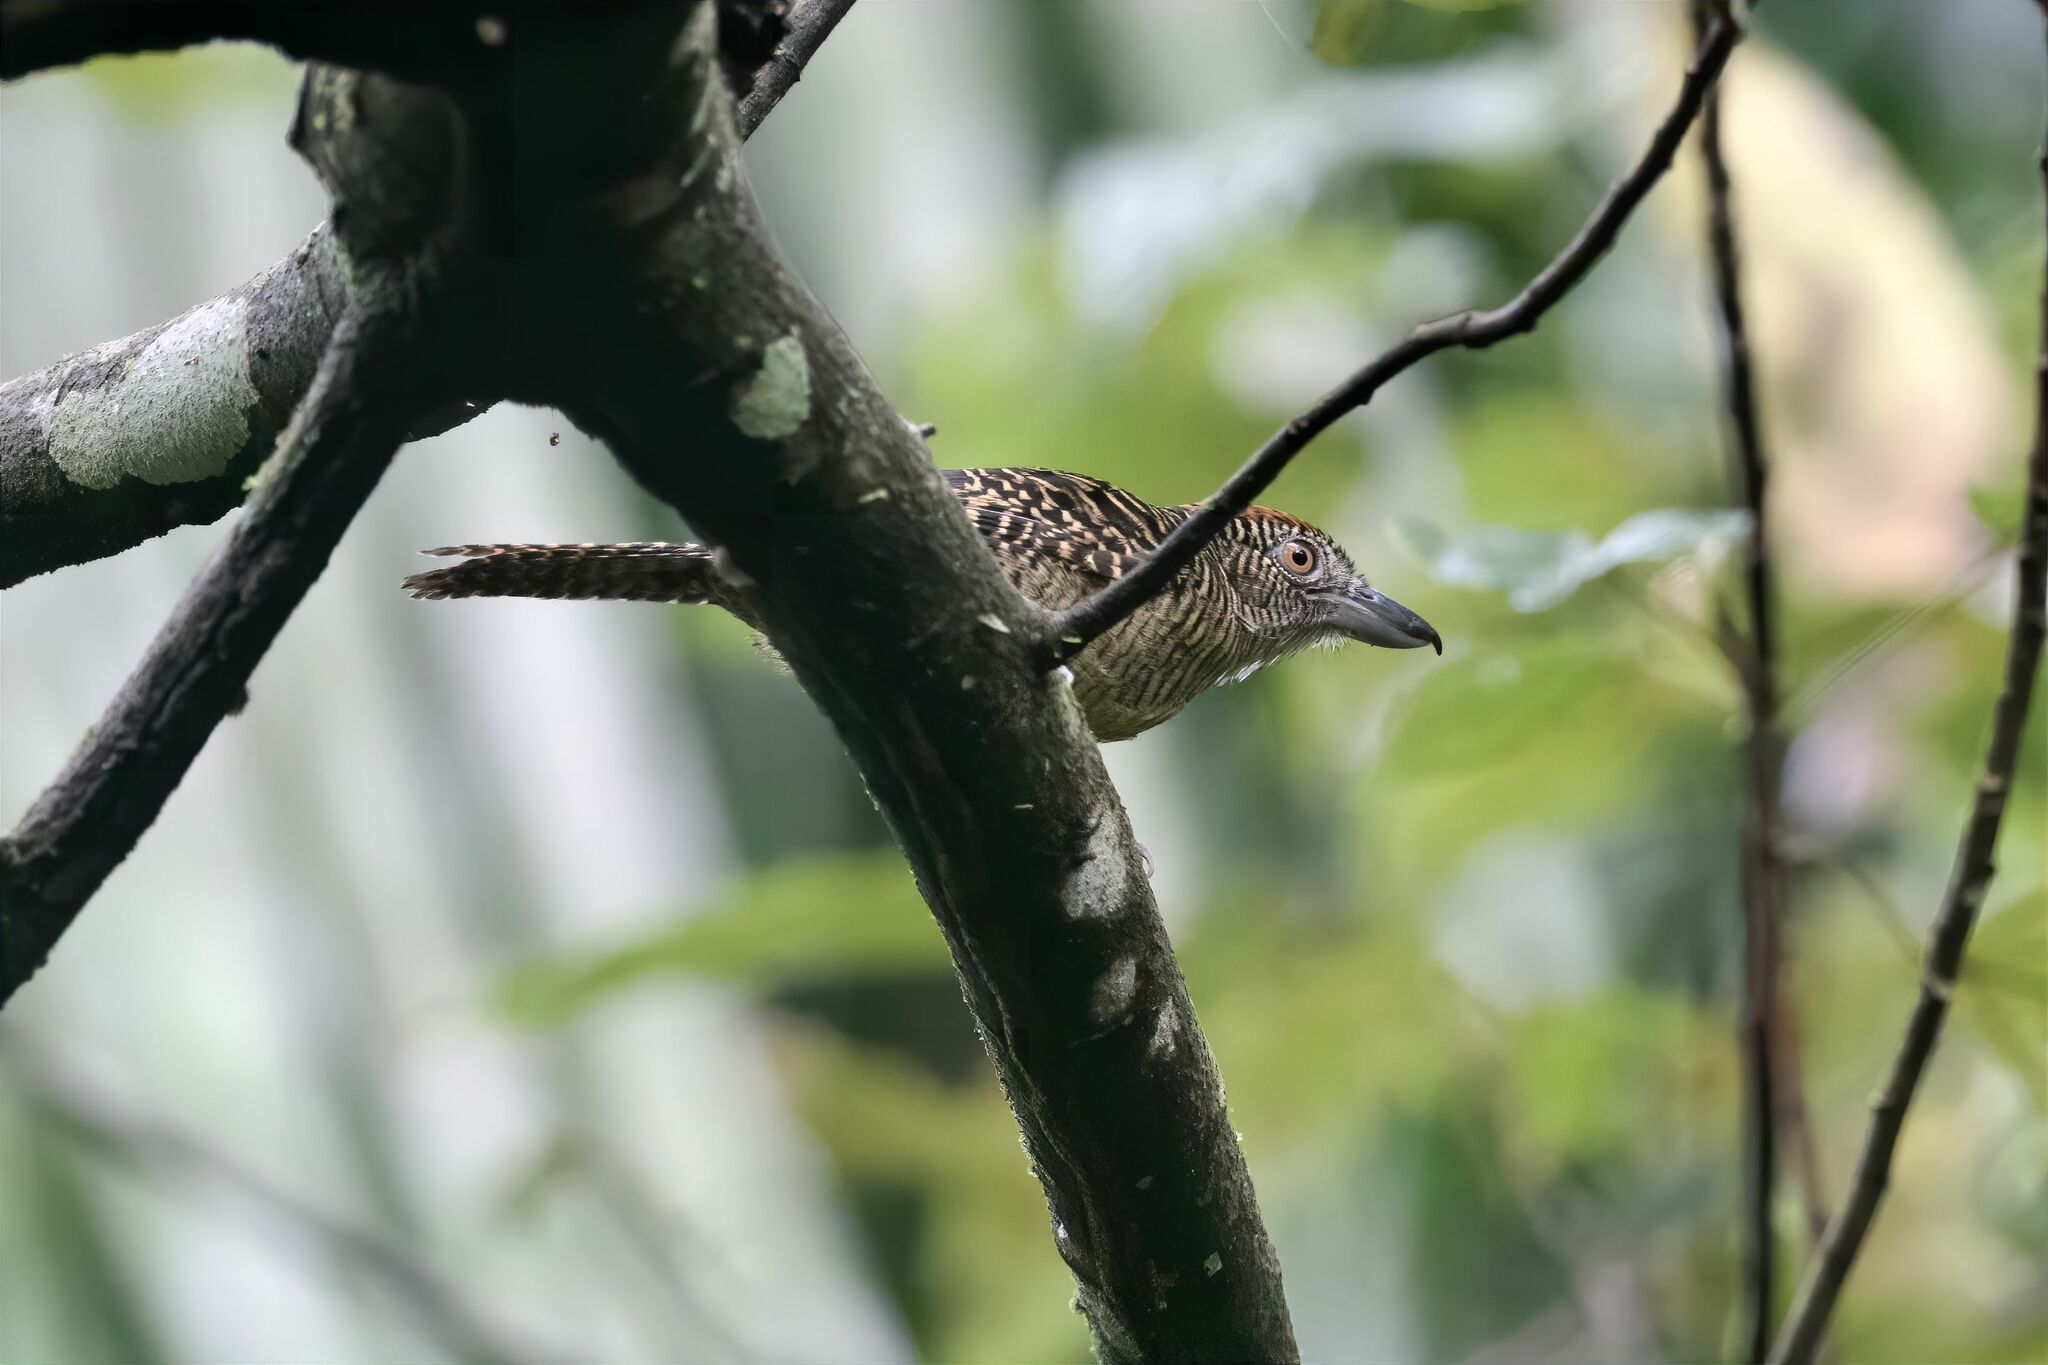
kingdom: Animalia
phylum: Chordata
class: Aves
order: Passeriformes
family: Thamnophilidae
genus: Cymbilaimus
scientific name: Cymbilaimus lineatus
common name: Fasciated antshrike
